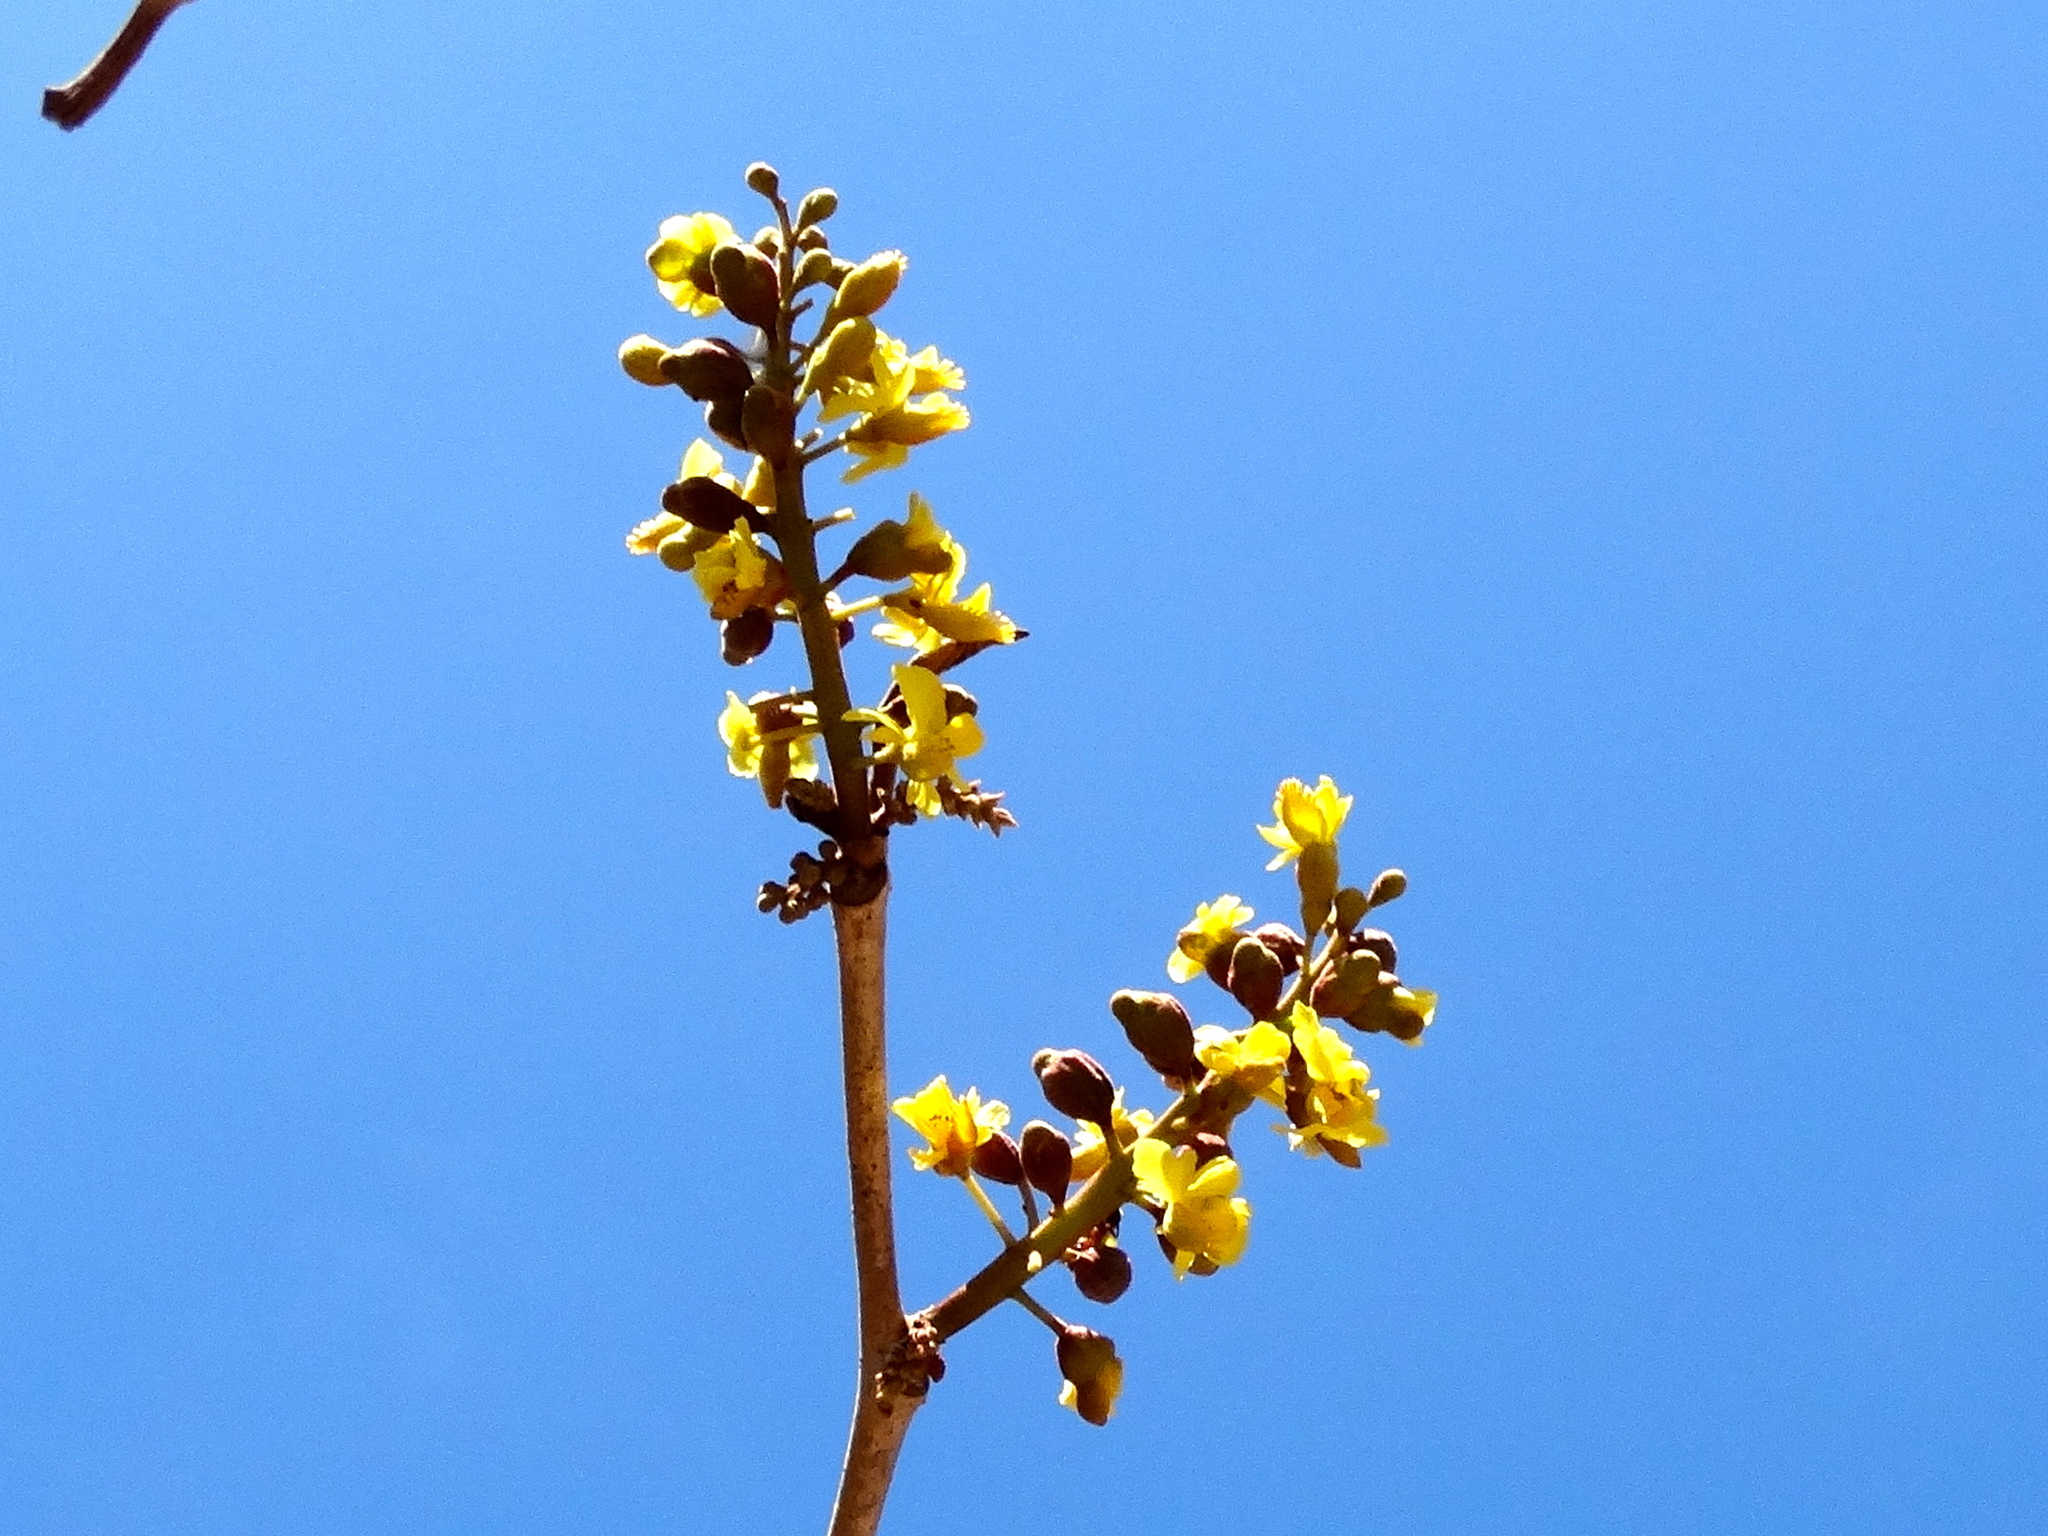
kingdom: Plantae
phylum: Tracheophyta
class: Magnoliopsida
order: Fabales
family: Fabaceae
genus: Coulteria
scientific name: Coulteria platyloba
